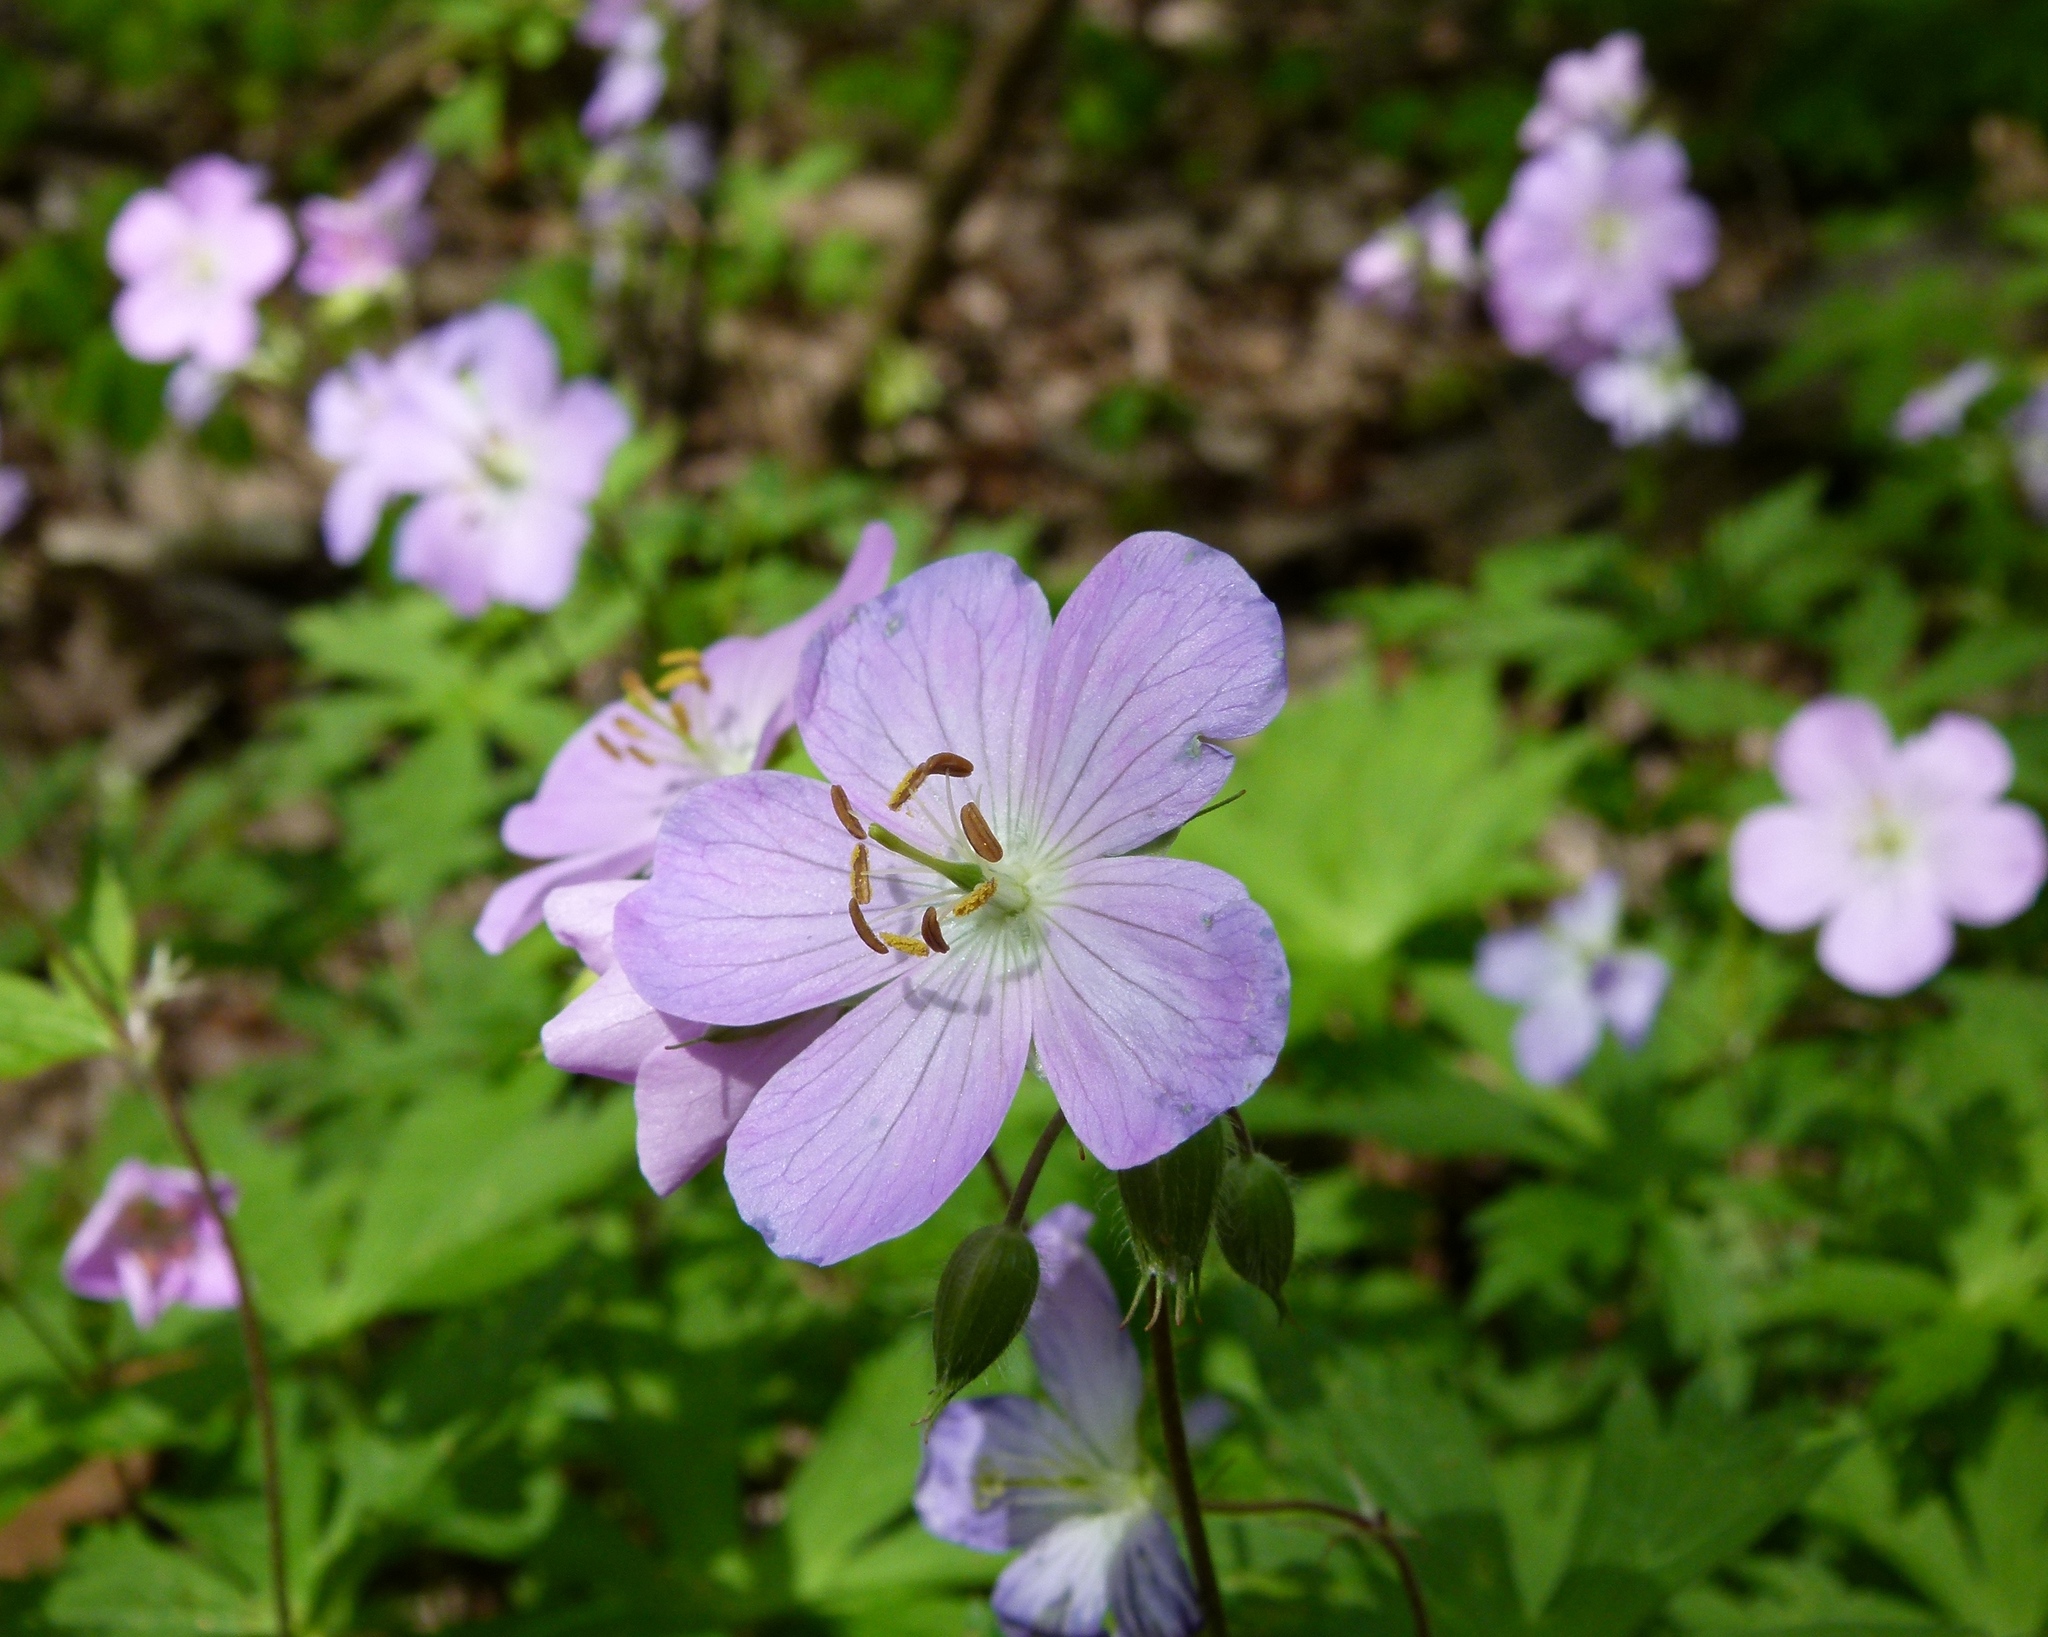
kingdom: Plantae
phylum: Tracheophyta
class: Magnoliopsida
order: Geraniales
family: Geraniaceae
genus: Geranium
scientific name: Geranium maculatum
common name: Spotted geranium
